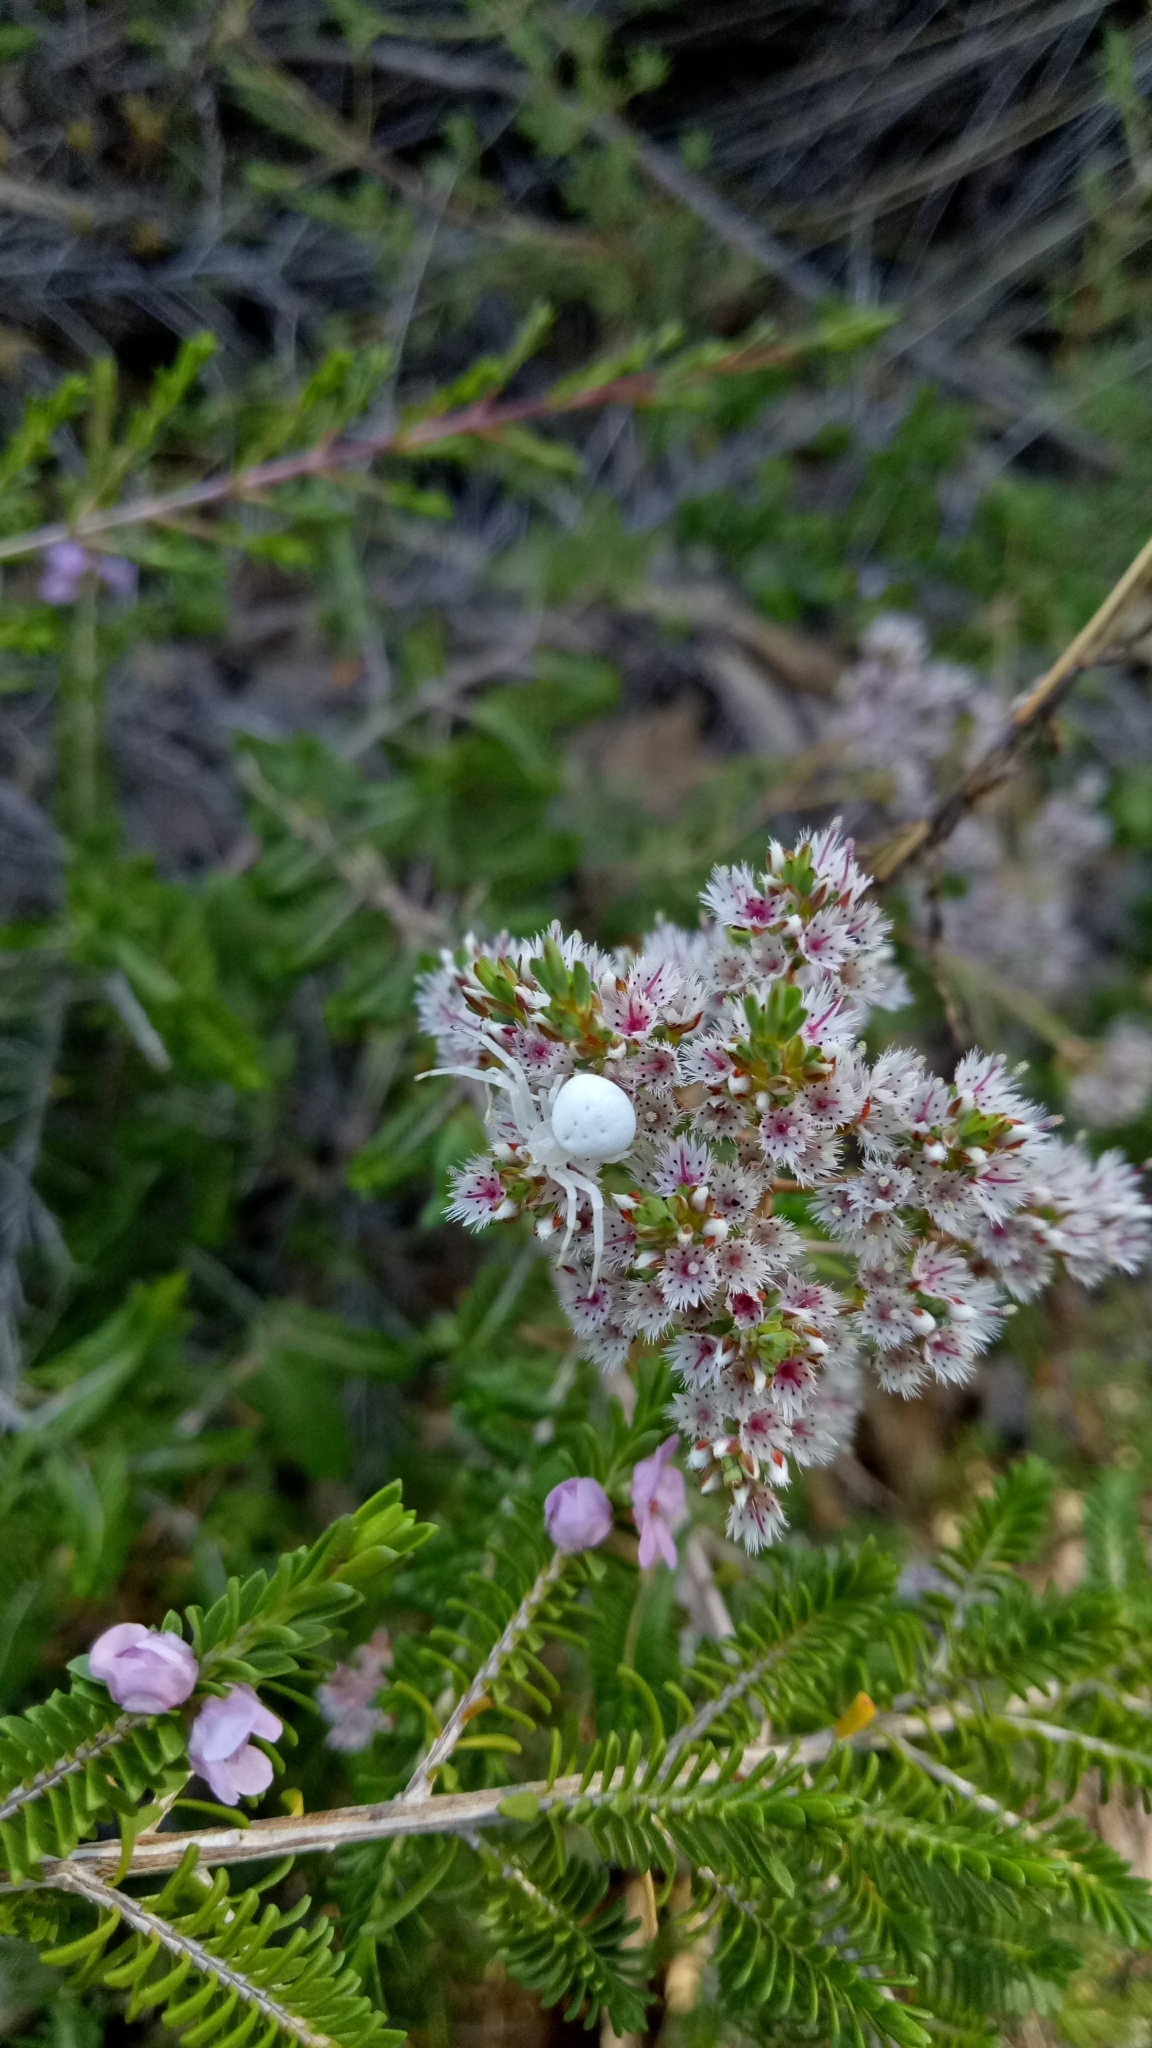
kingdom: Animalia
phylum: Arthropoda
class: Arachnida
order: Araneae
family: Thomisidae
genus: Zygometis
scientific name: Zygometis xanthogaster
